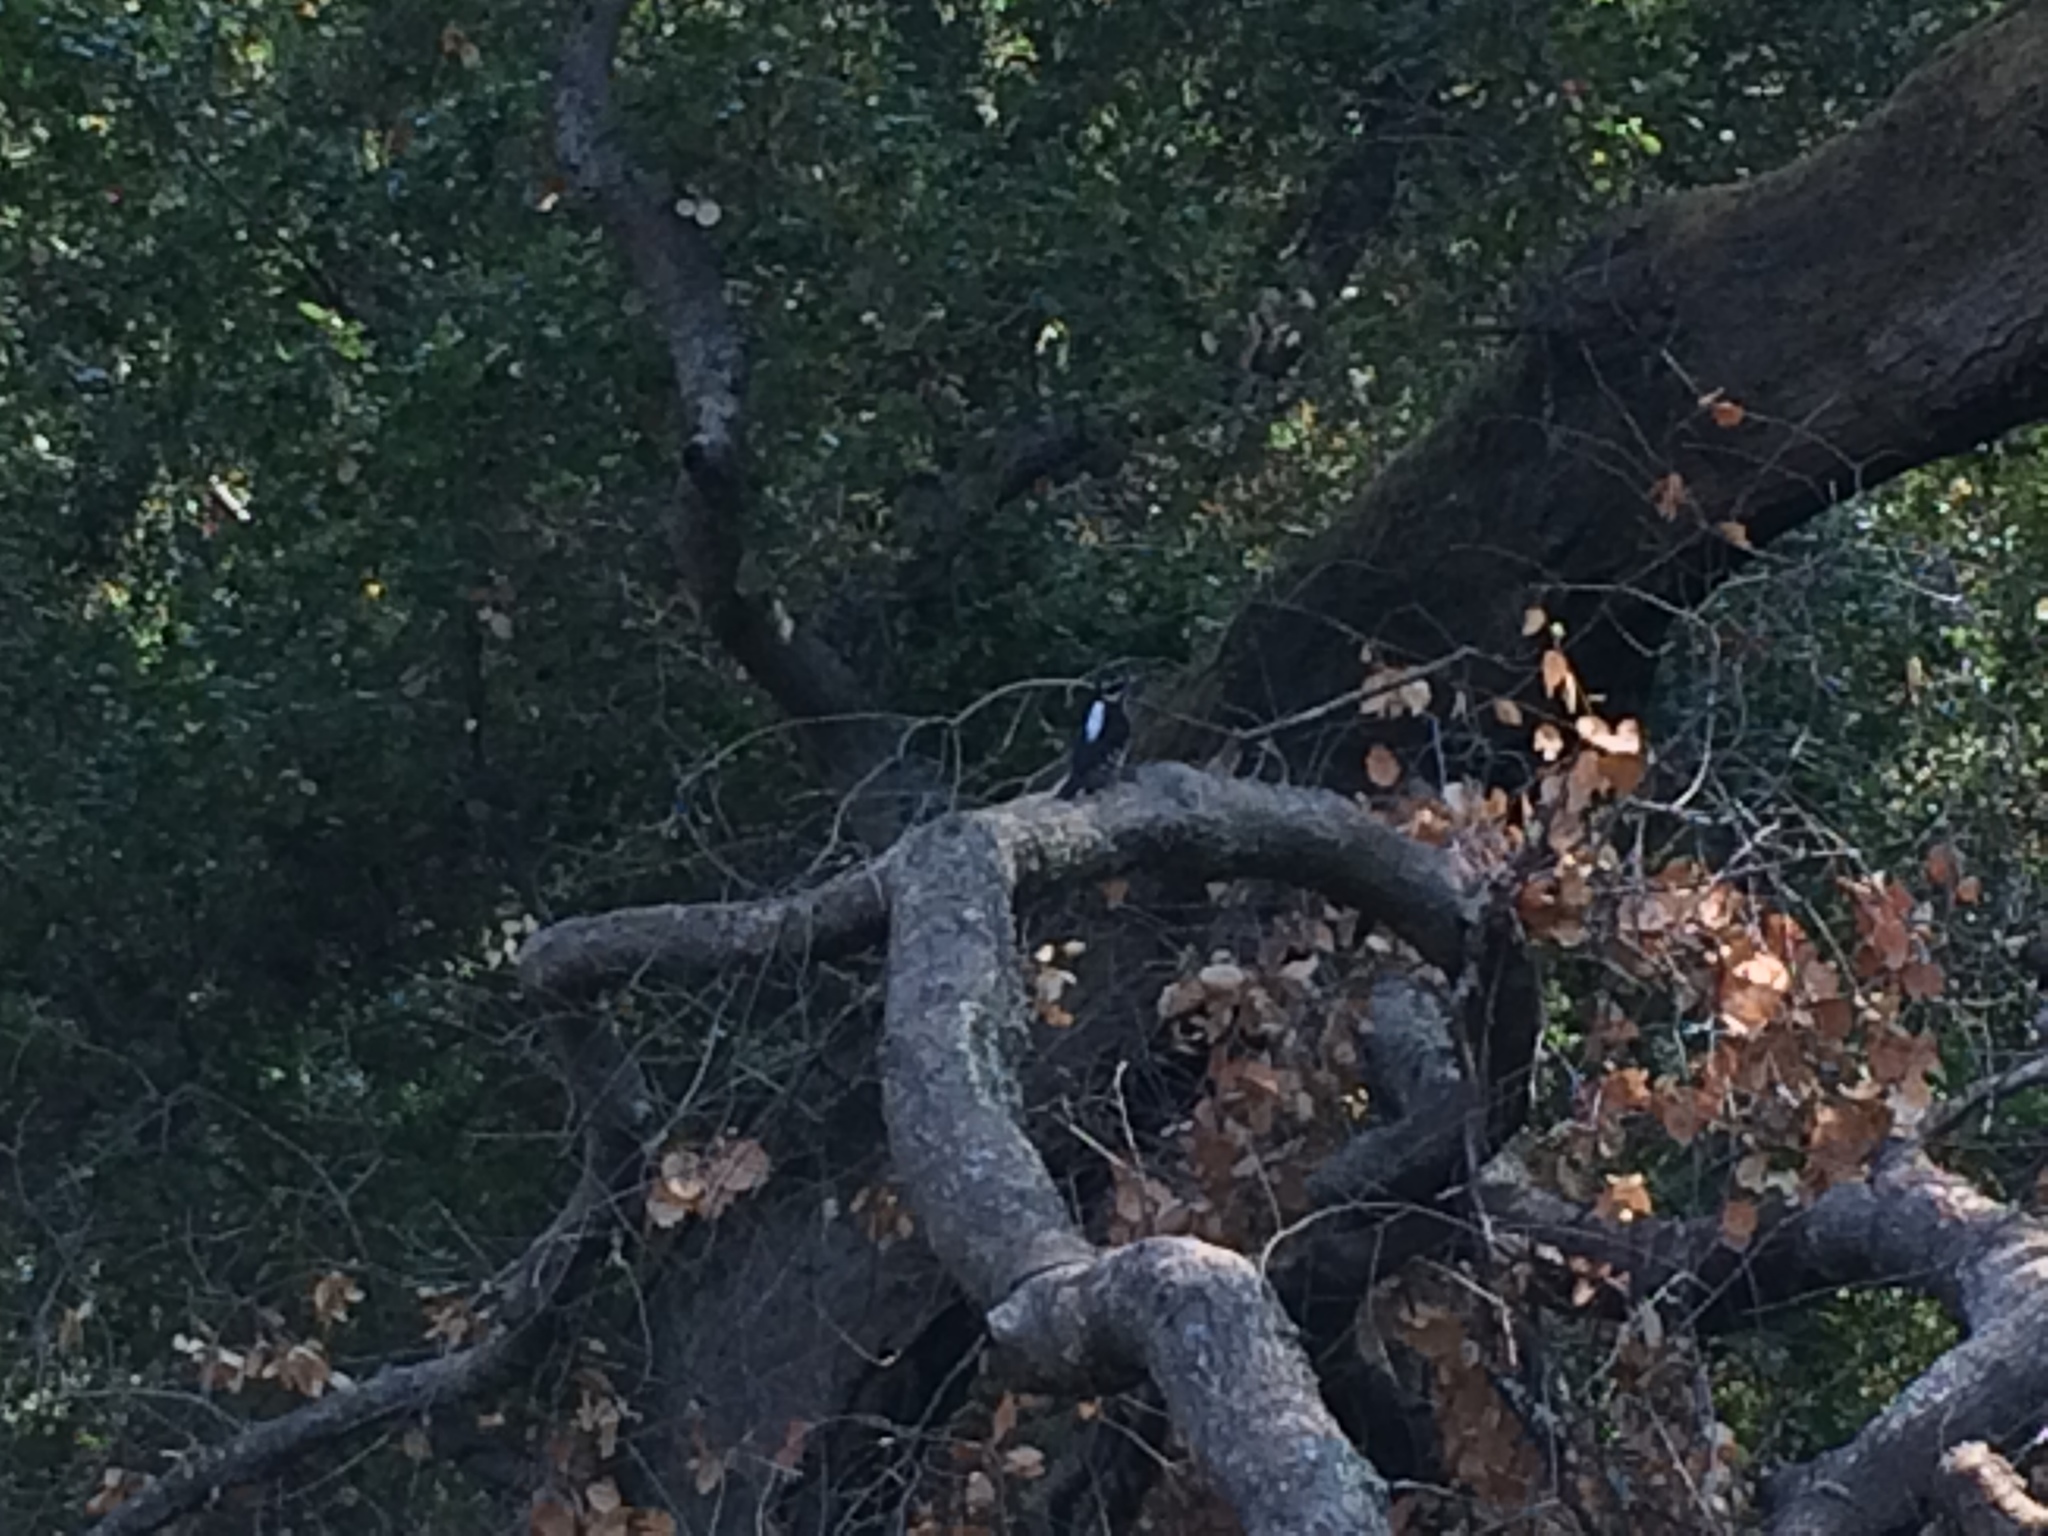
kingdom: Animalia
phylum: Chordata
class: Aves
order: Piciformes
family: Picidae
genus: Leuconotopicus
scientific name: Leuconotopicus villosus
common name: Hairy woodpecker
